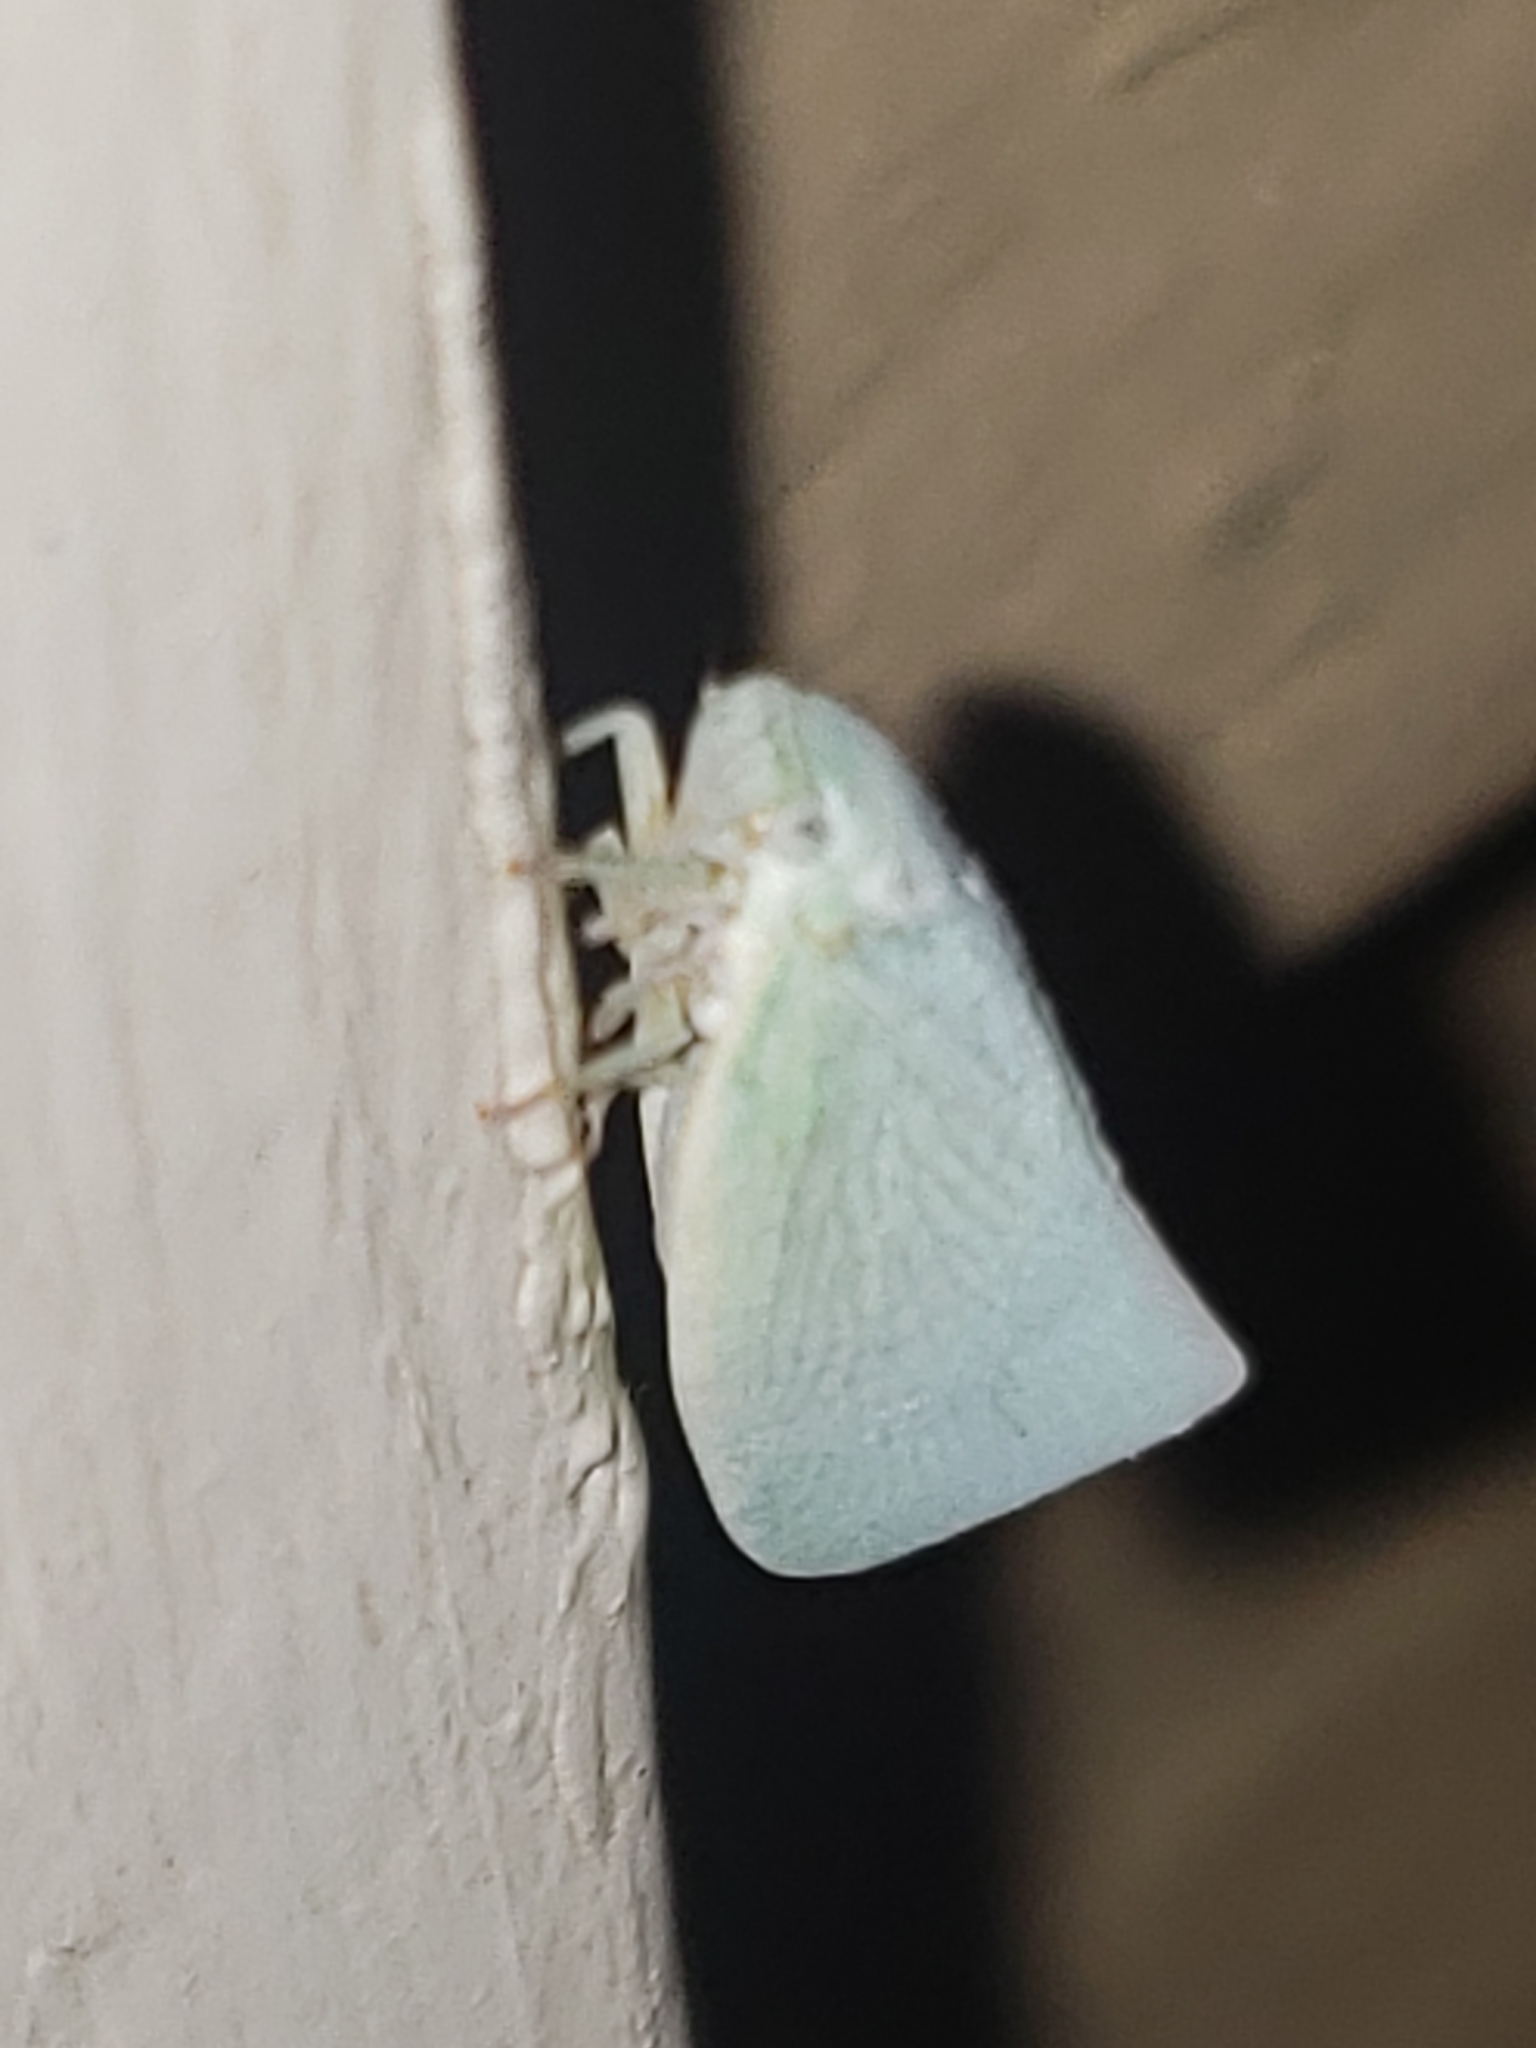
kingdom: Animalia
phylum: Arthropoda
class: Insecta
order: Hemiptera
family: Flatidae
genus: Flatormenis
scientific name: Flatormenis proxima
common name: Northern flatid planthopper
